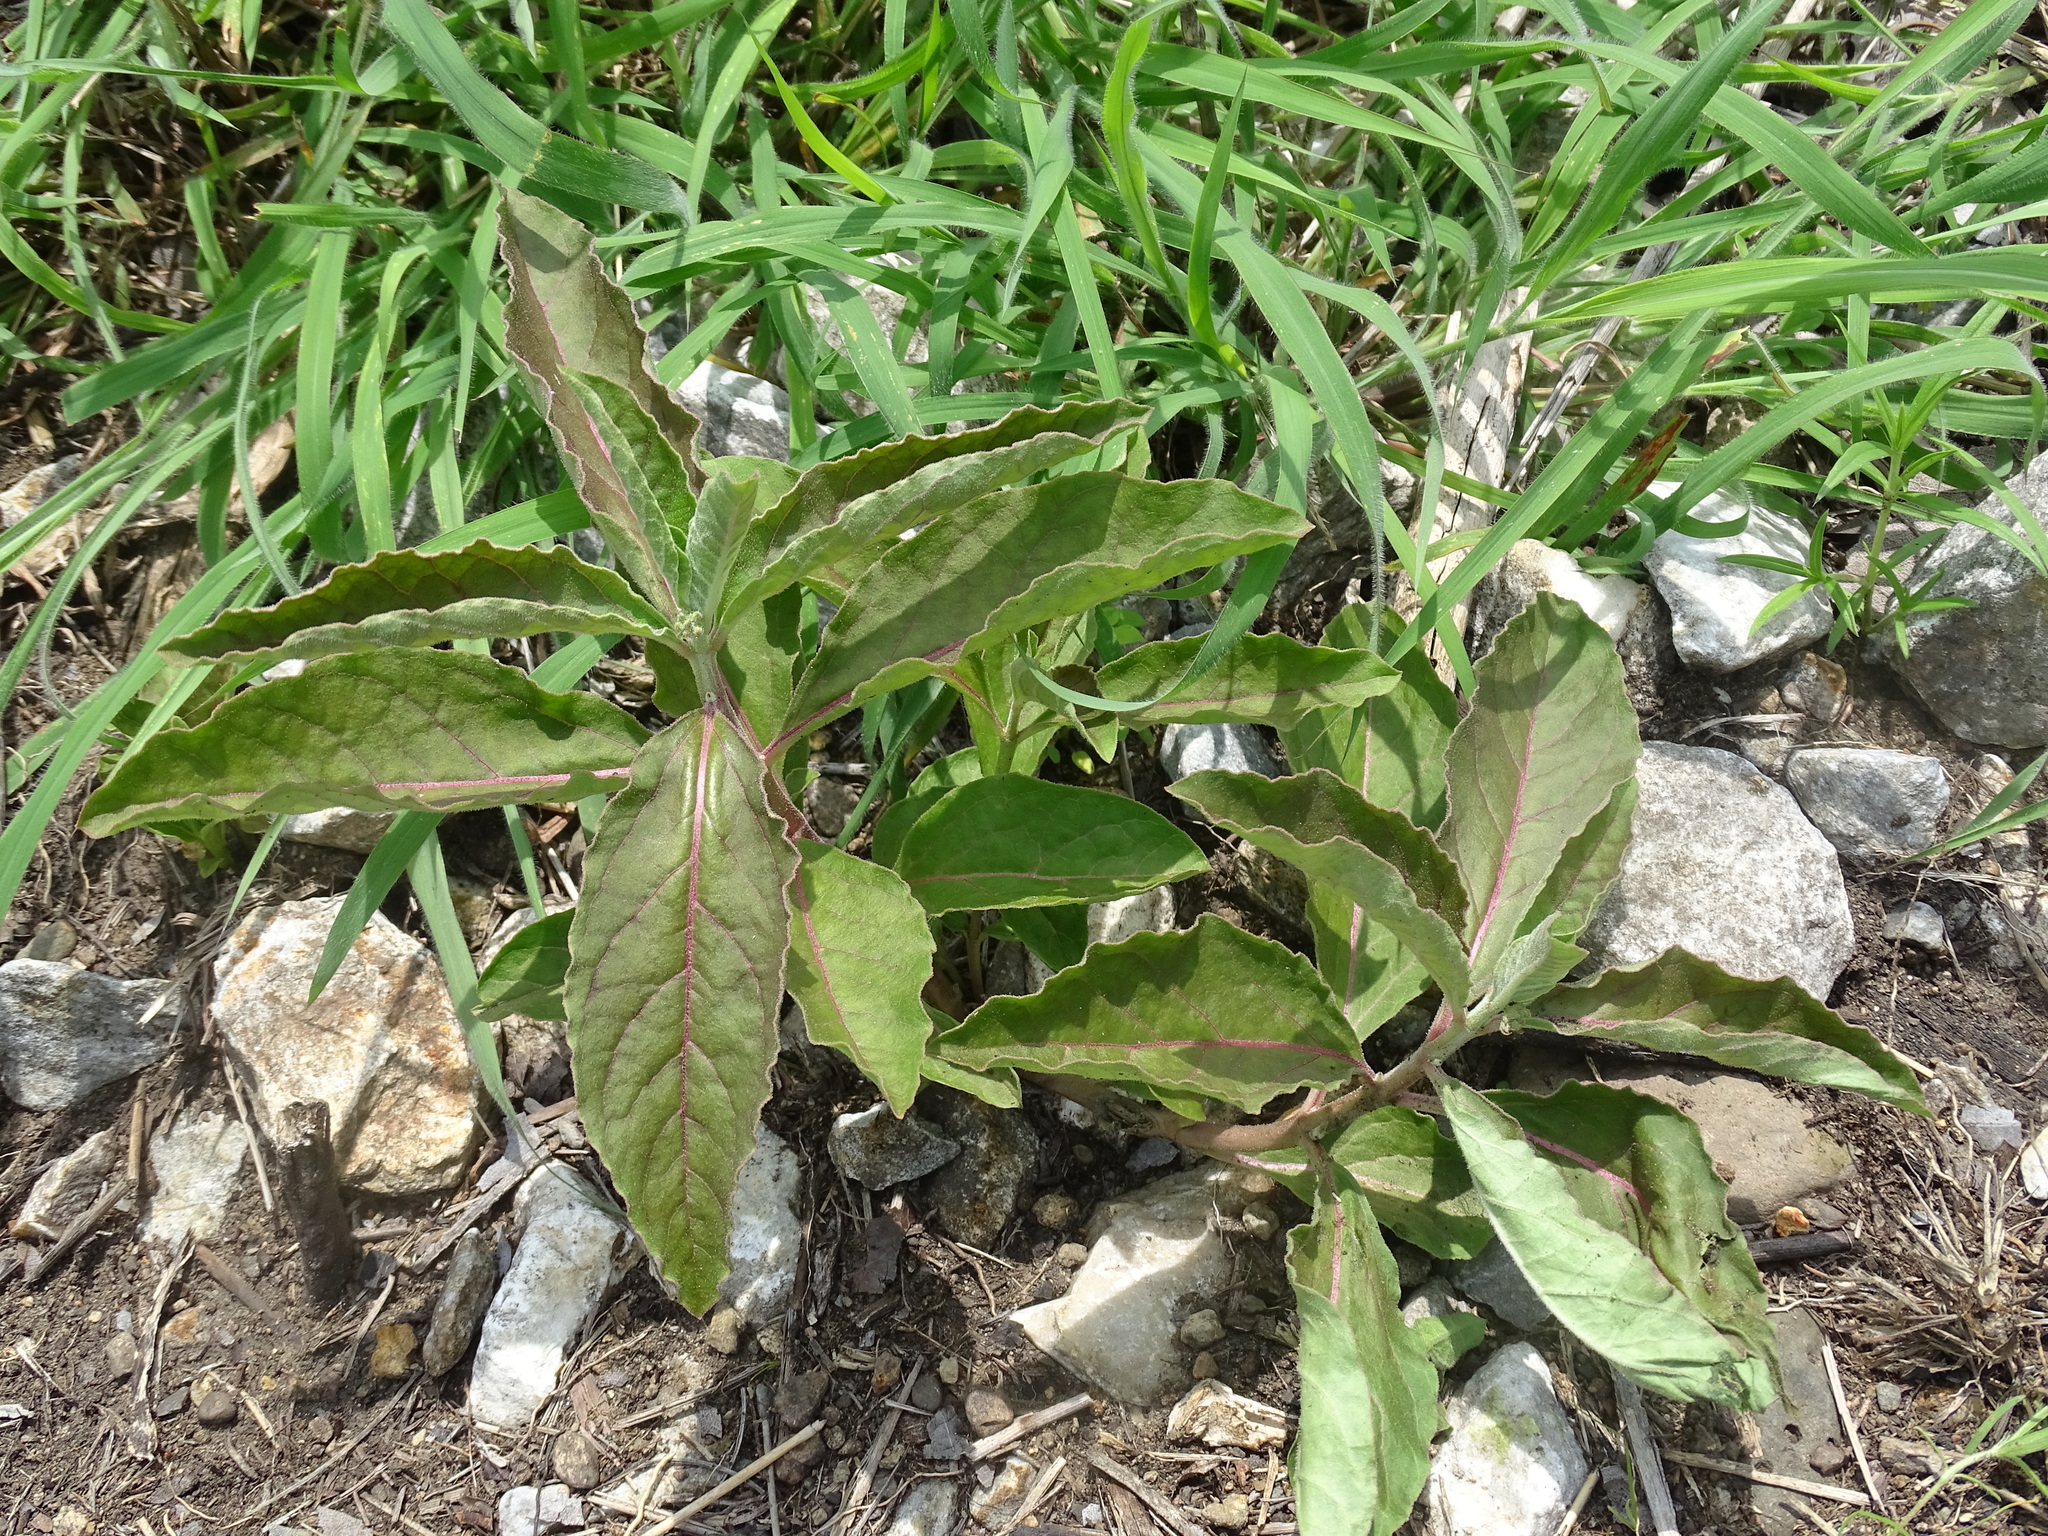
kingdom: Plantae
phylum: Tracheophyta
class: Magnoliopsida
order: Gentianales
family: Apocynaceae
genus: Asclepias
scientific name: Asclepias oenotheroides
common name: Zizotes milkweed
